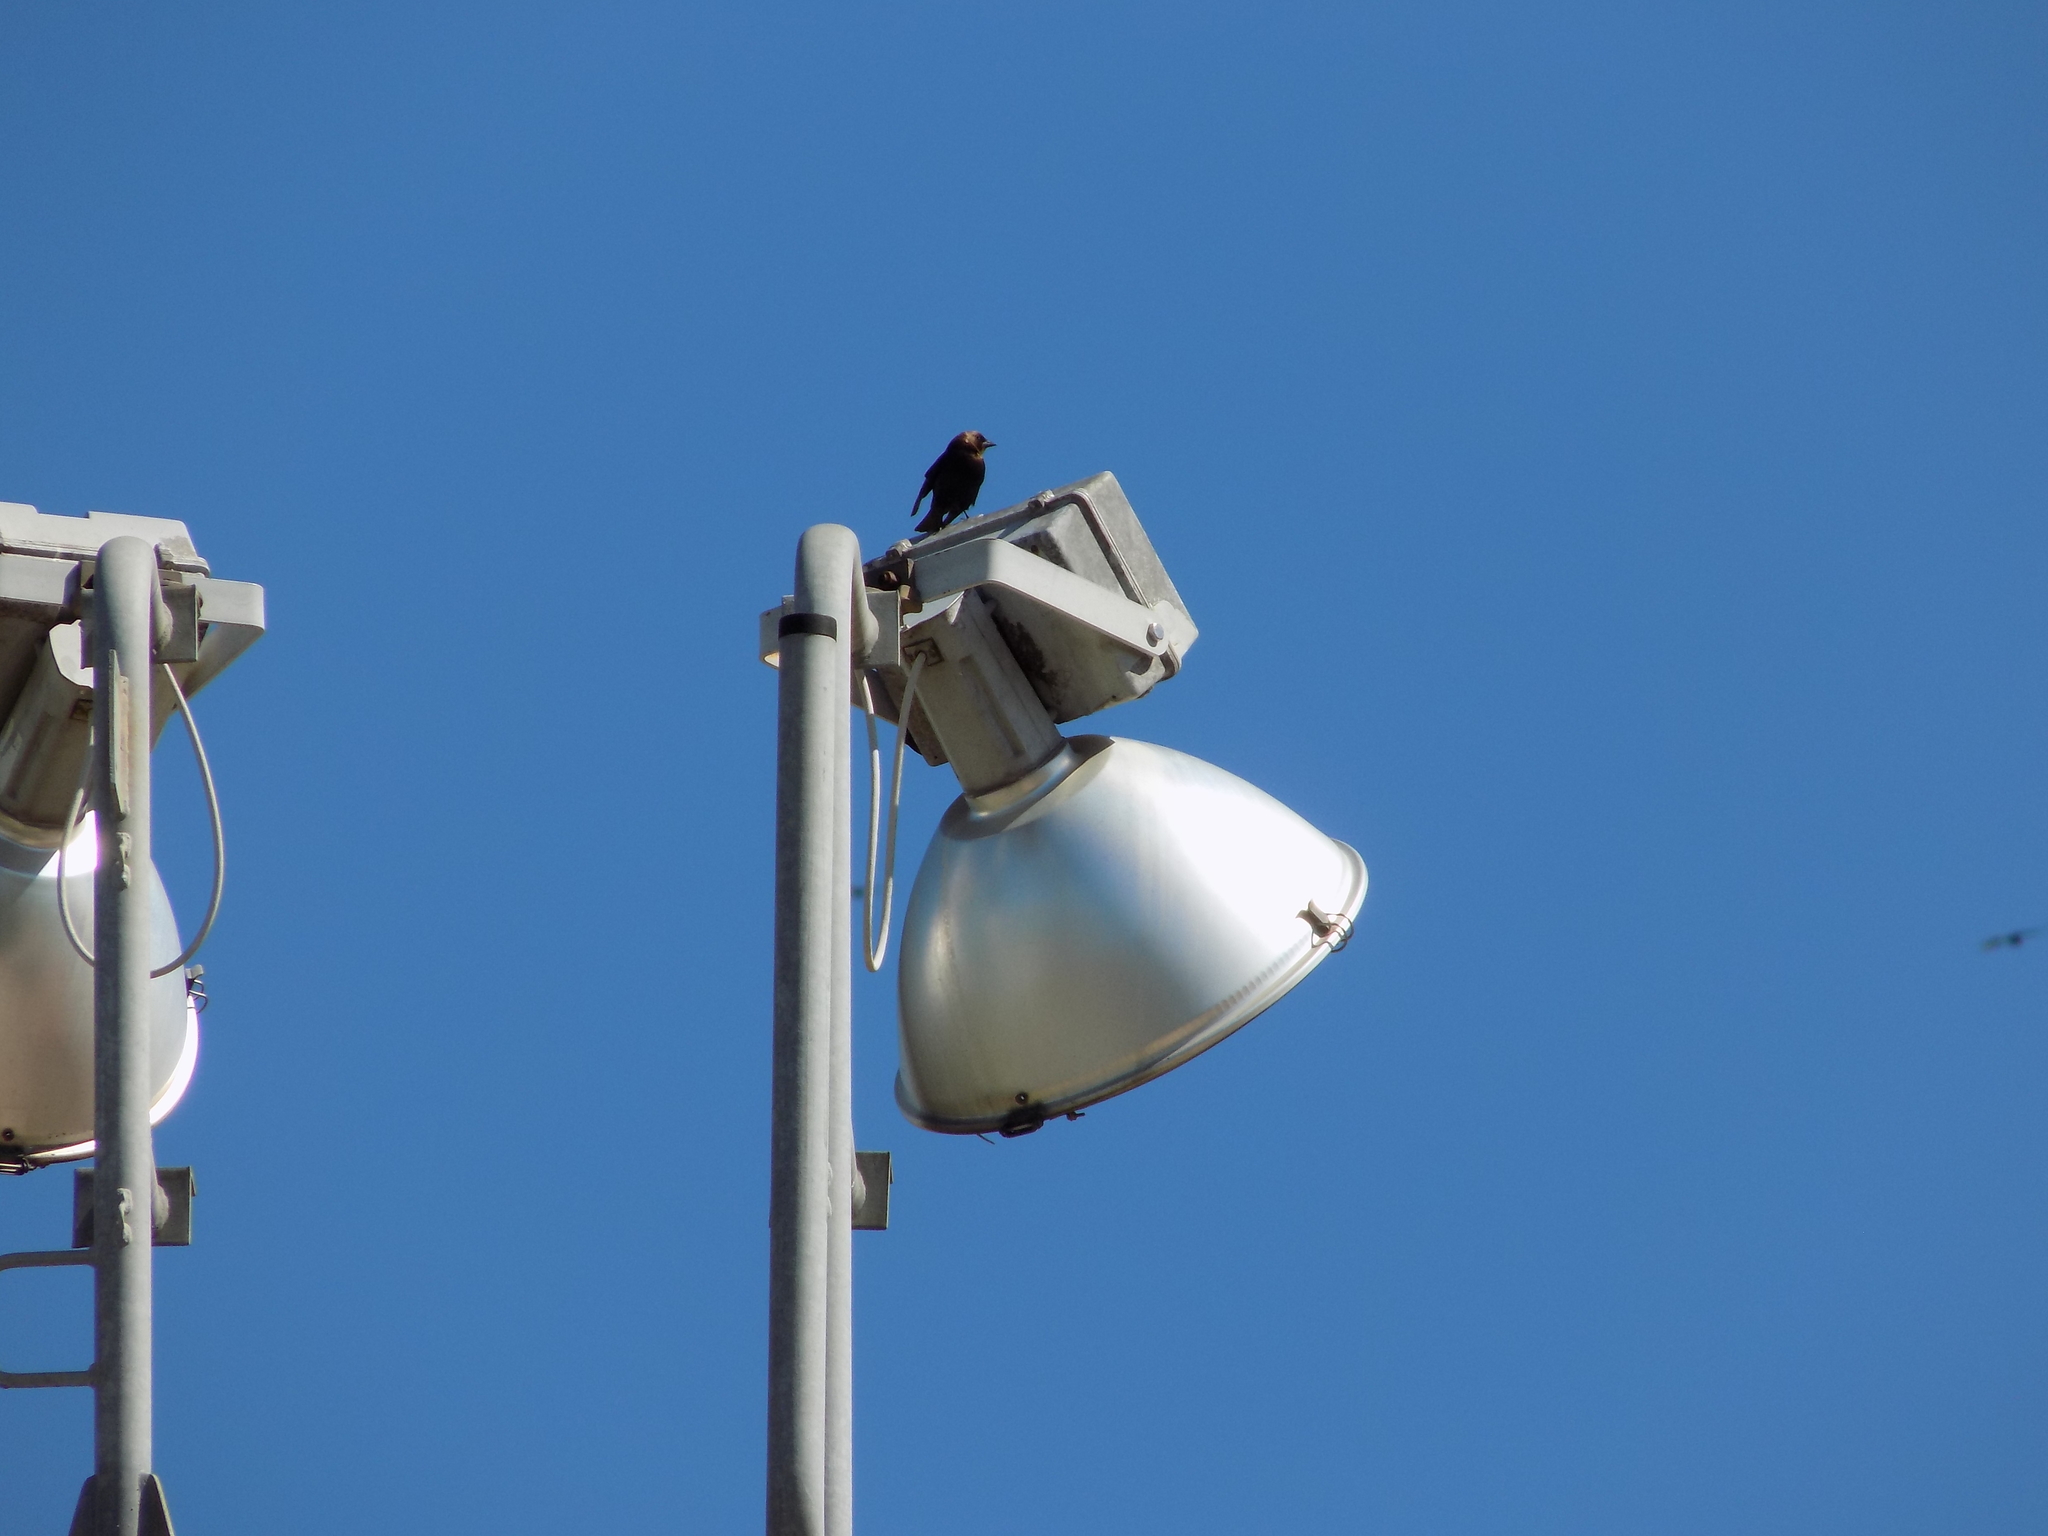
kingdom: Animalia
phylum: Chordata
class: Aves
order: Passeriformes
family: Icteridae
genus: Molothrus
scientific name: Molothrus ater
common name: Brown-headed cowbird
